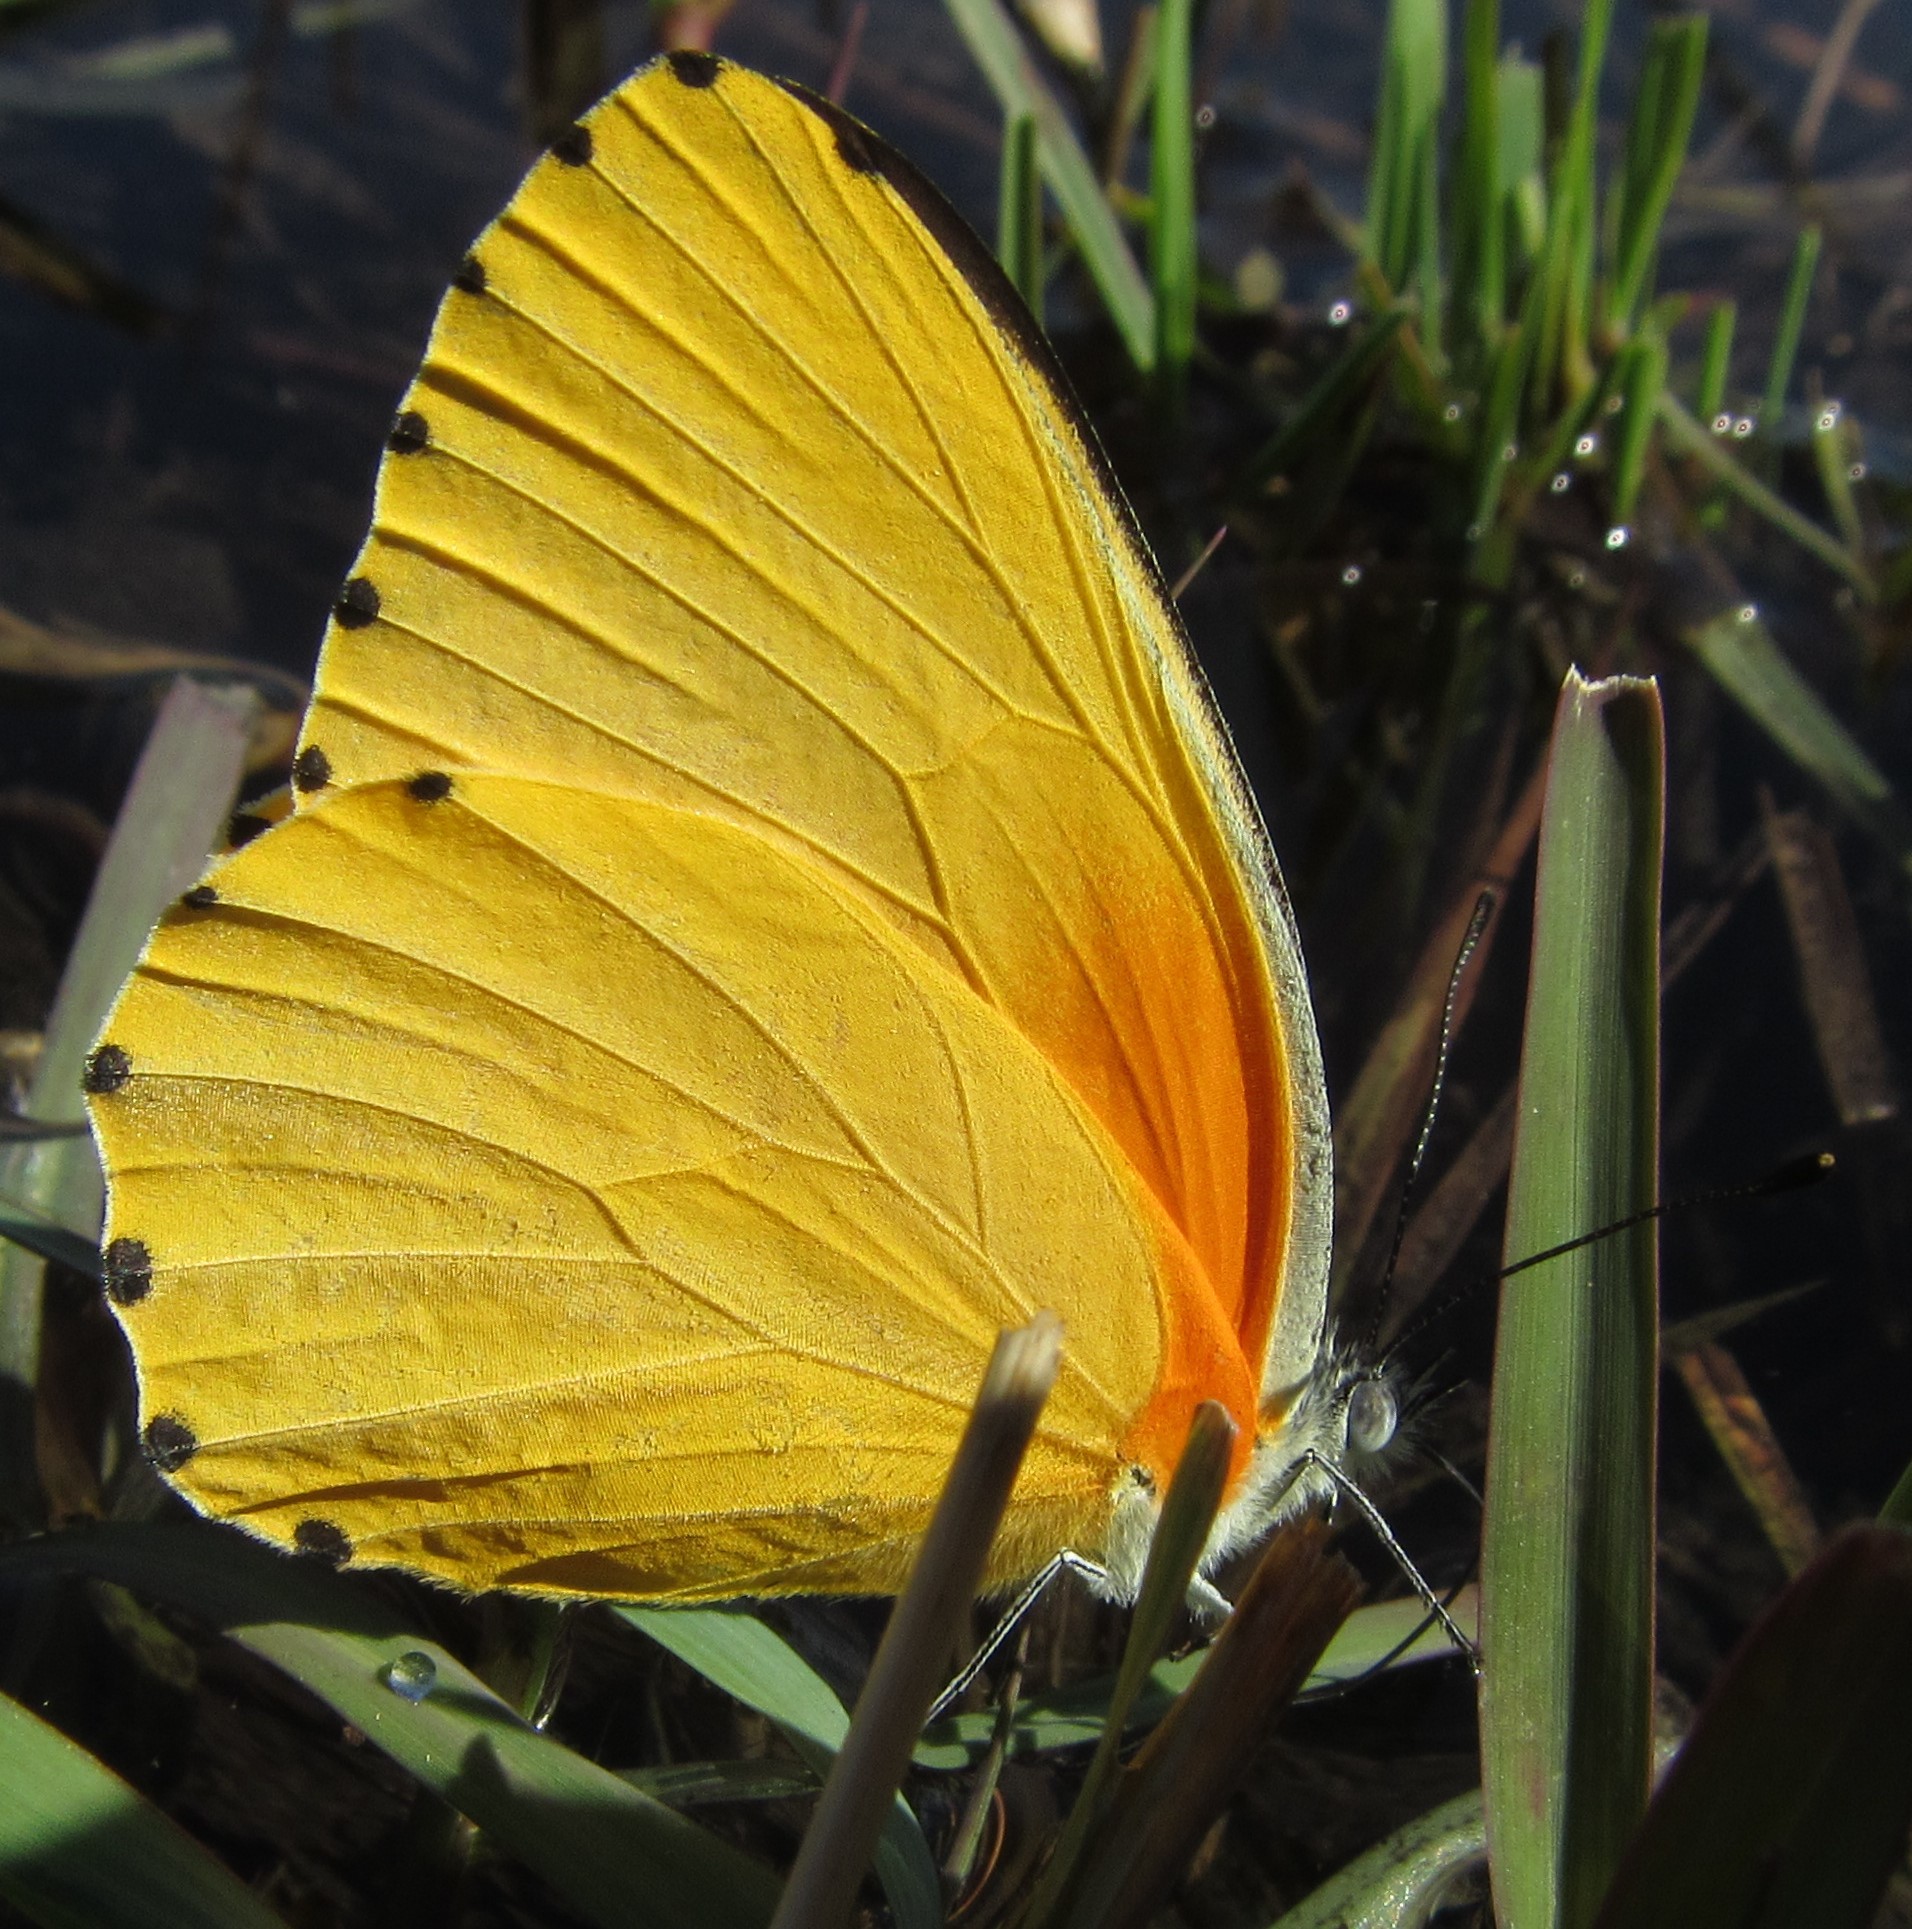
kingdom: Animalia
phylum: Arthropoda
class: Insecta
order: Lepidoptera
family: Pieridae
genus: Mylothris
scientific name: Mylothris agathina
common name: Eastern dotted border
